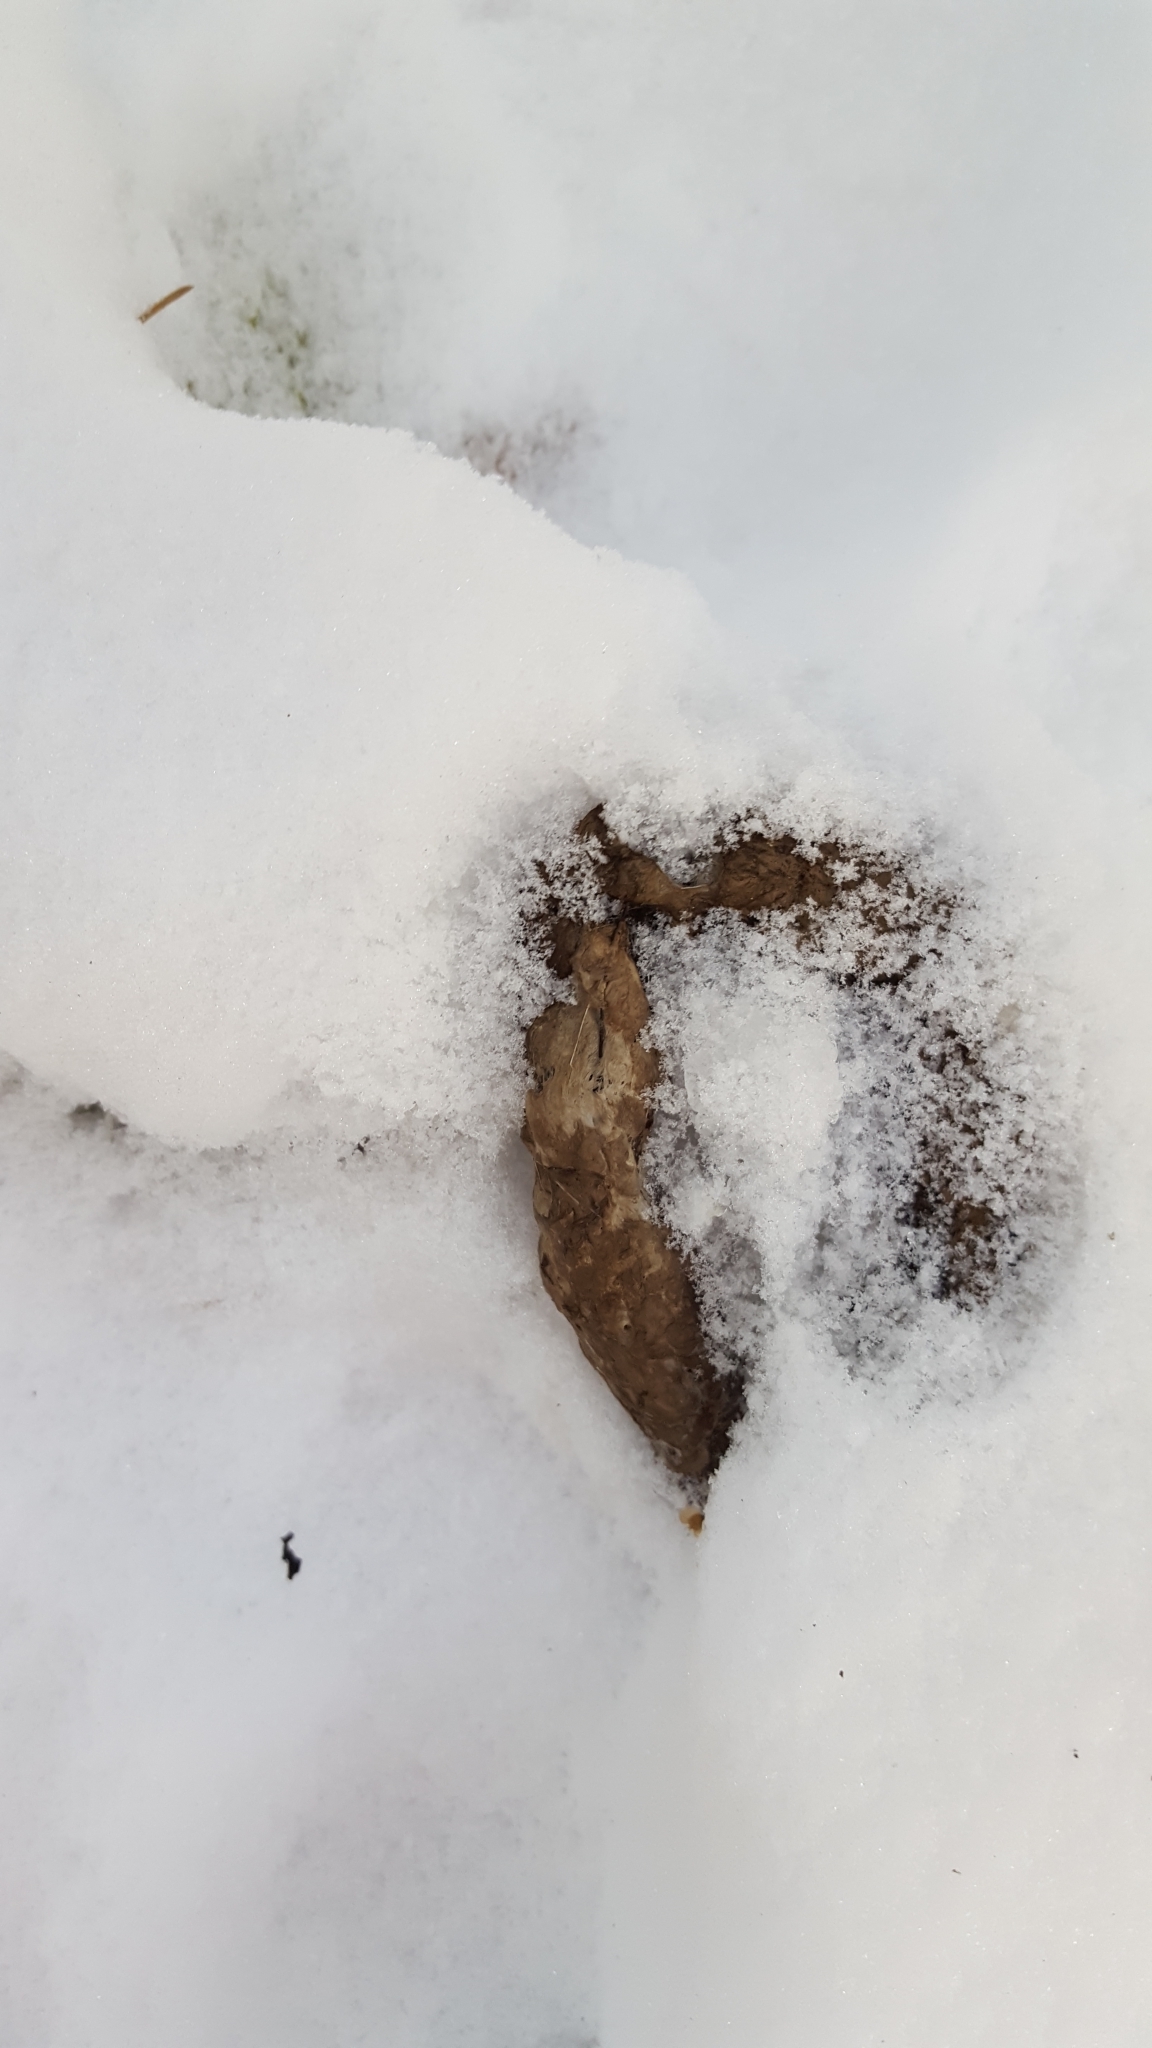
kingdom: Animalia
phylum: Chordata
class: Mammalia
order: Carnivora
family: Felidae
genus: Lynx
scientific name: Lynx canadensis
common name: Canadian lynx
